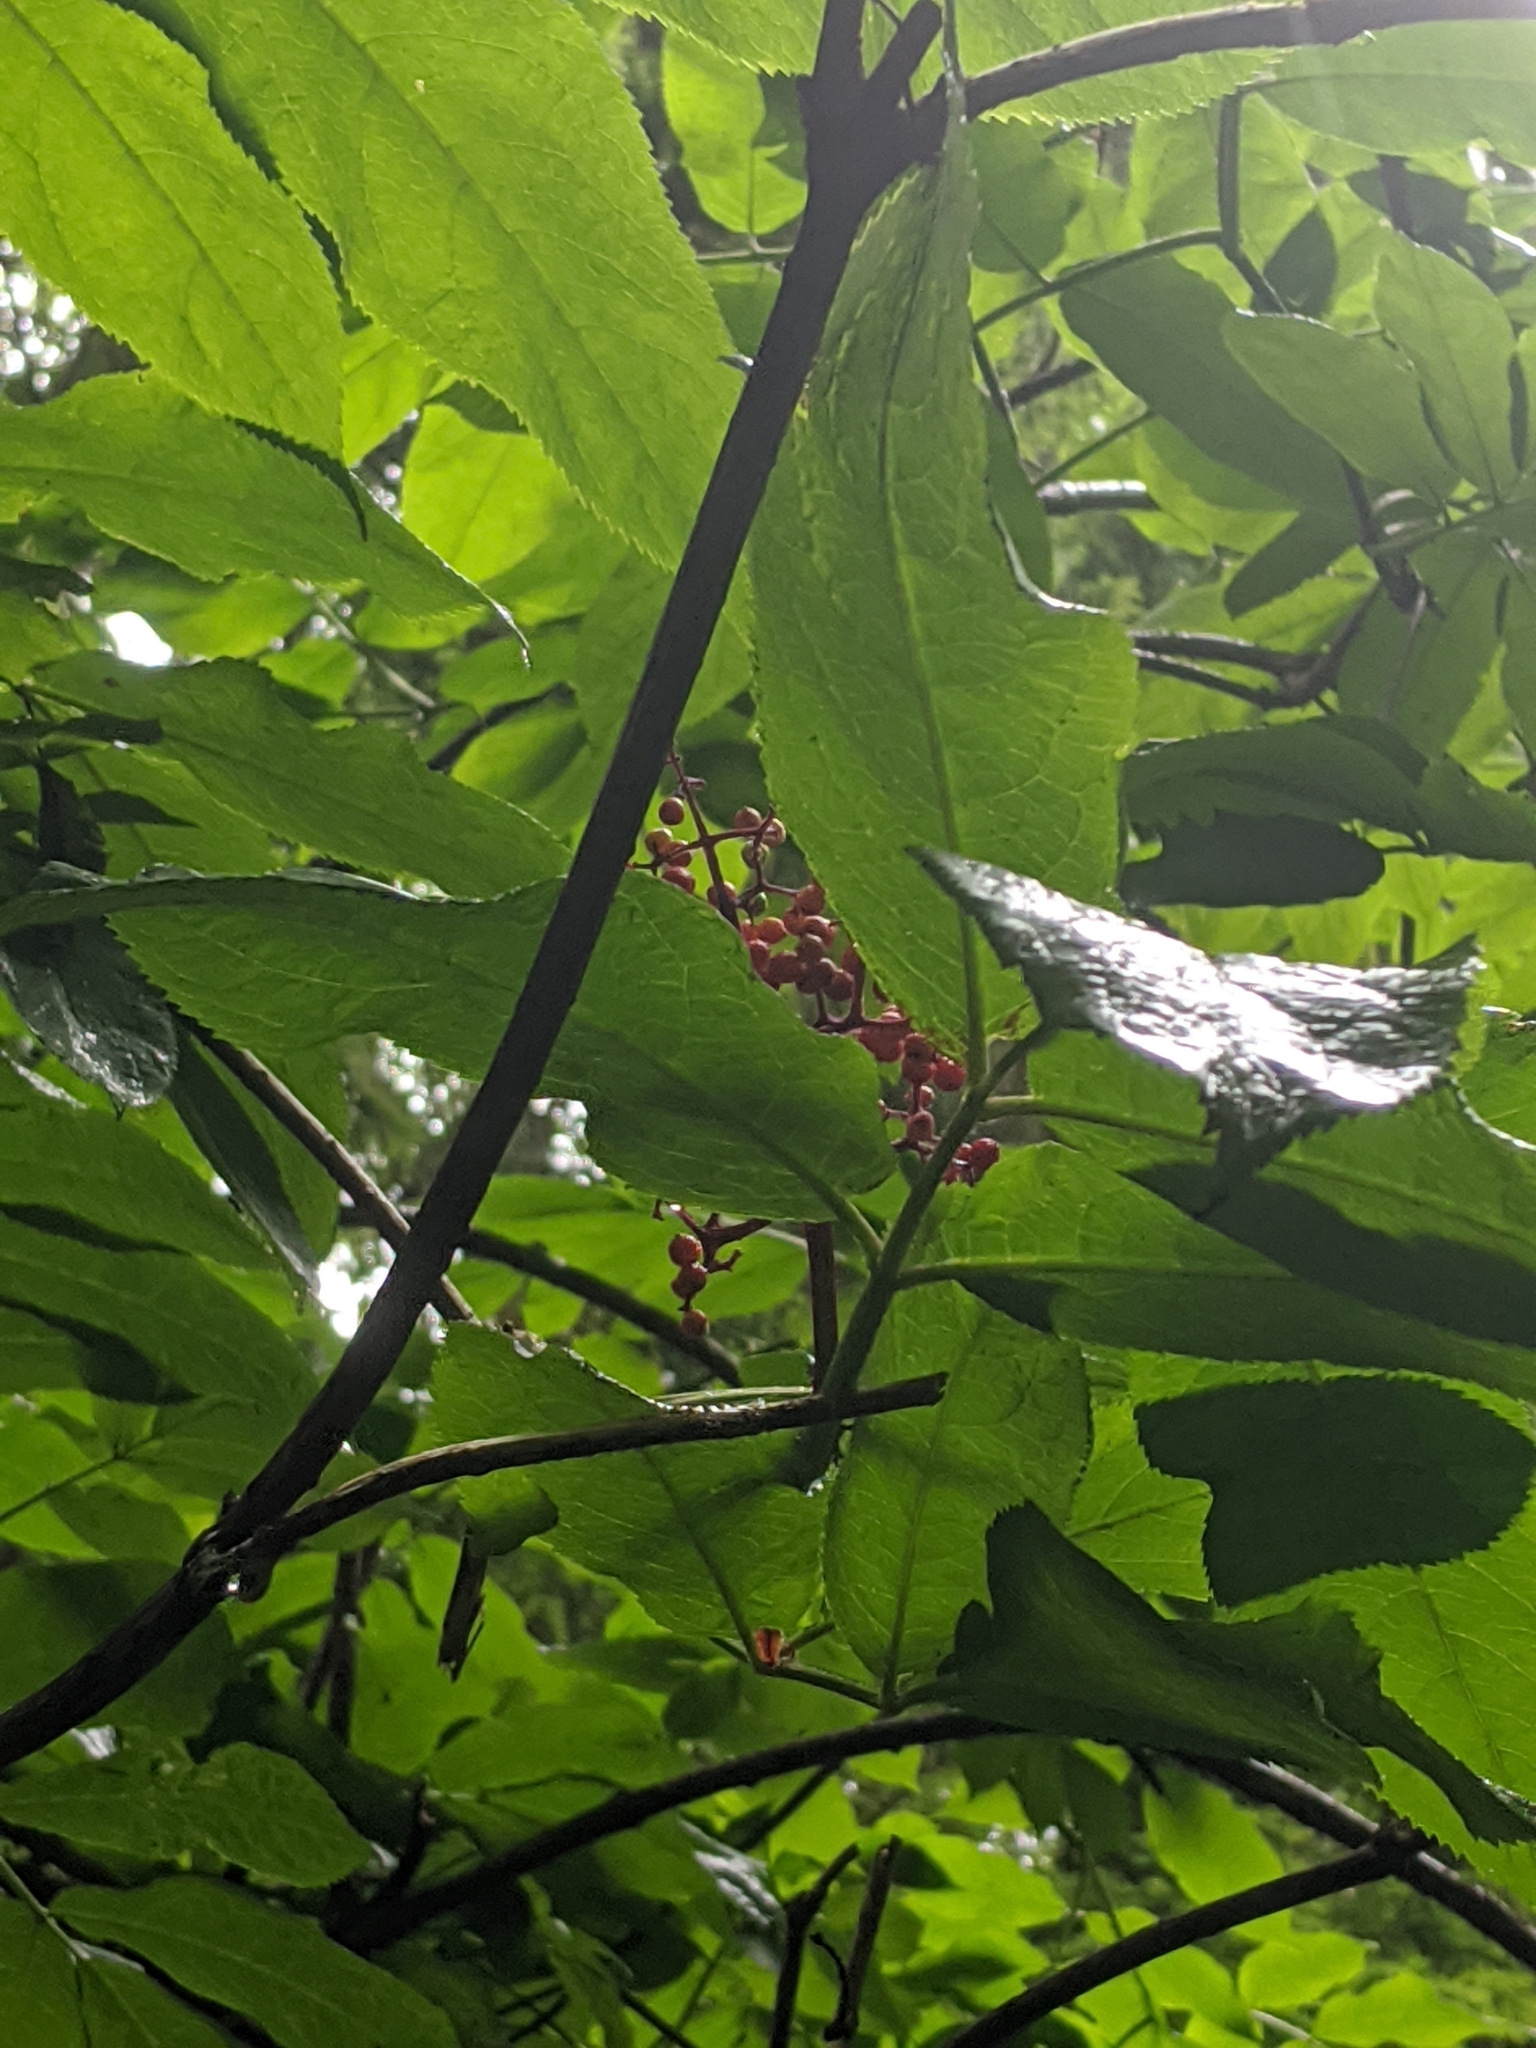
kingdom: Plantae
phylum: Tracheophyta
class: Magnoliopsida
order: Dipsacales
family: Viburnaceae
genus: Sambucus
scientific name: Sambucus racemosa
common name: Red-berried elder
